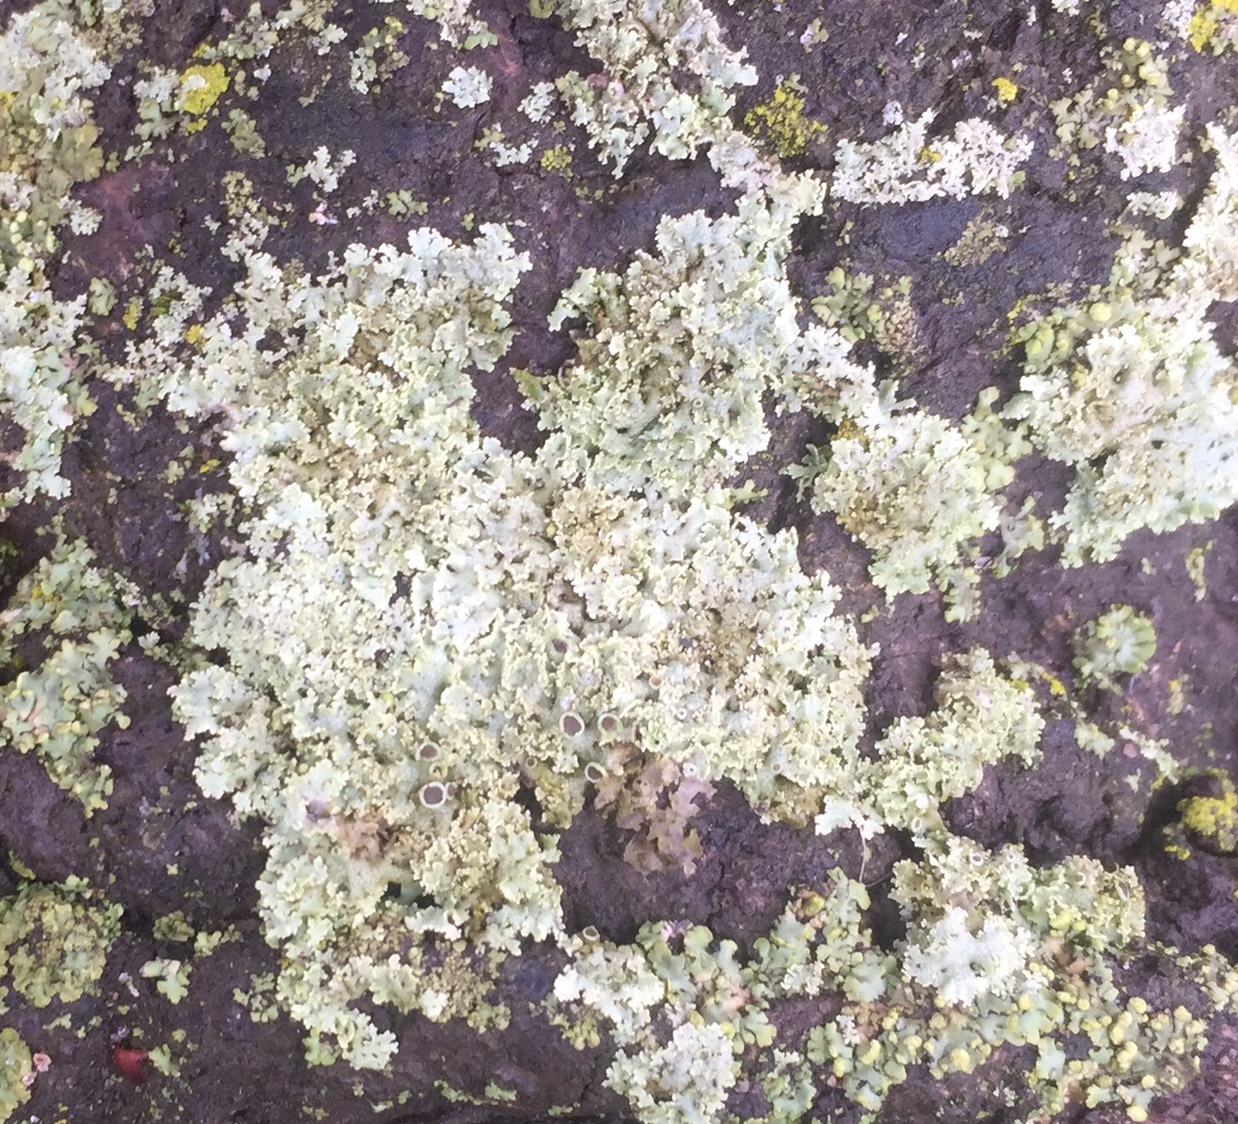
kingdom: Fungi
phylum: Ascomycota
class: Lecanoromycetes
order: Caliciales
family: Physciaceae
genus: Physcia
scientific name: Physcia millegrana
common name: Rosette lichen
